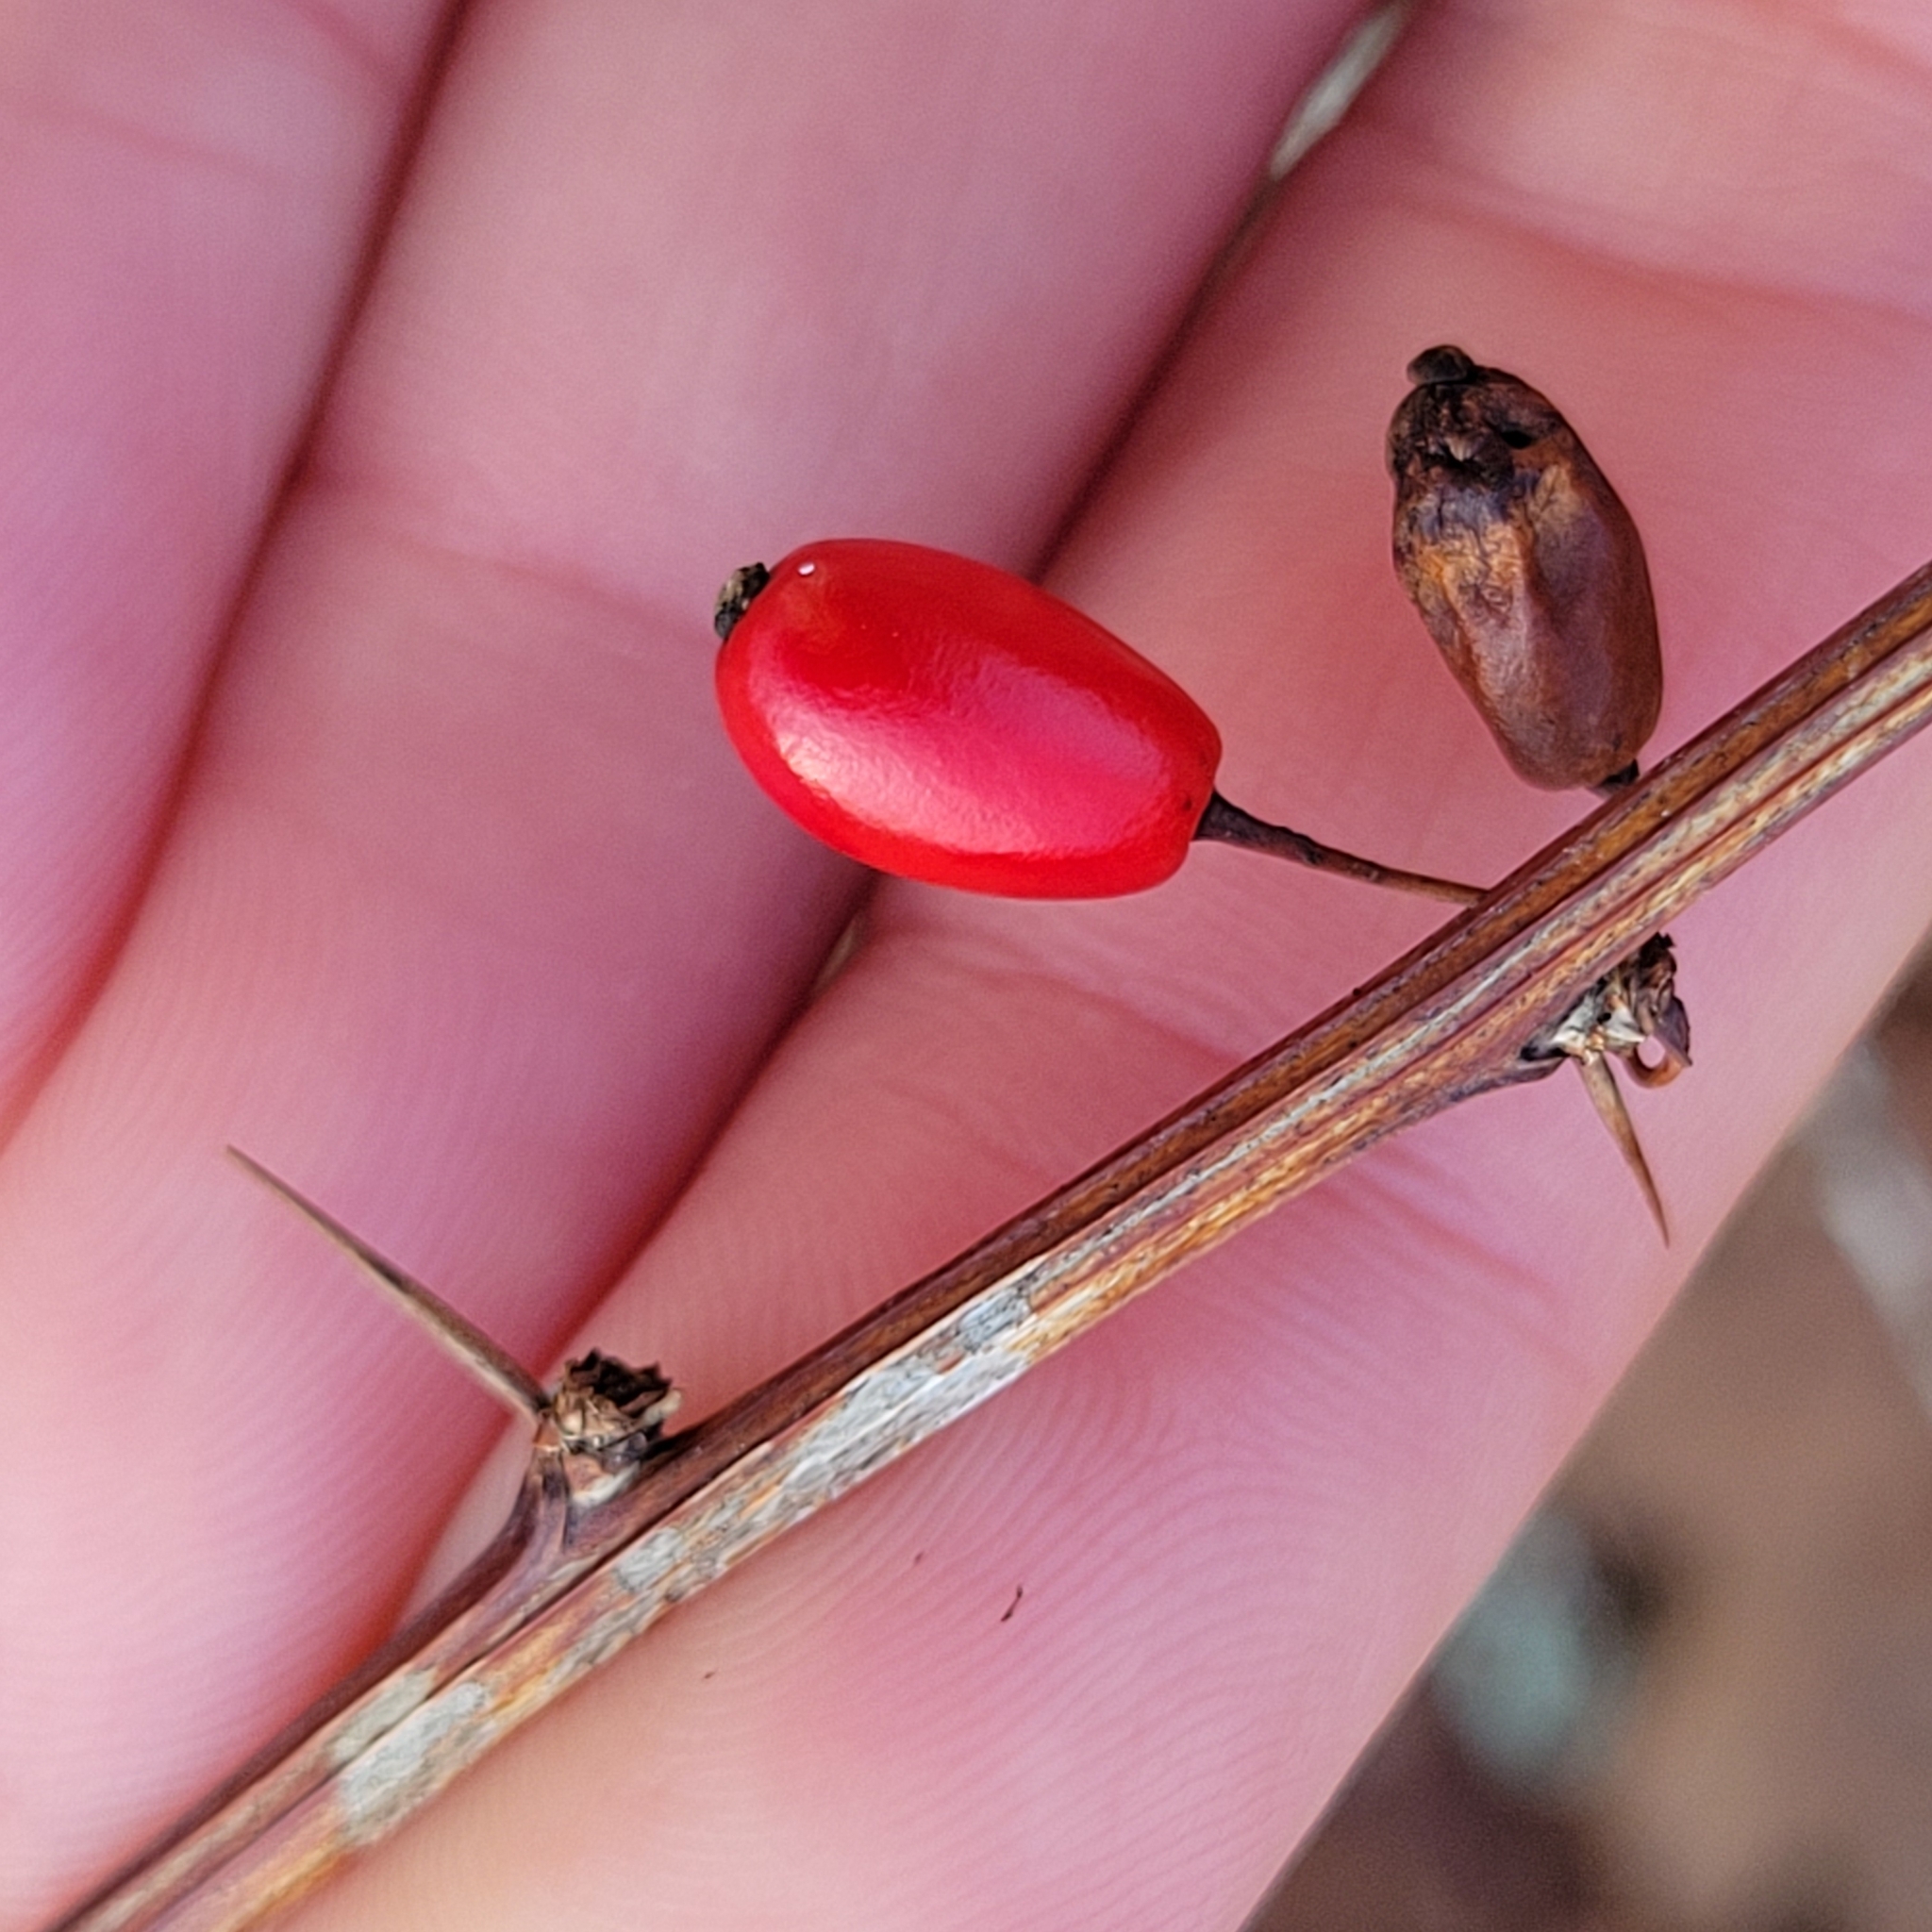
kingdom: Plantae
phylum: Tracheophyta
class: Magnoliopsida
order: Ranunculales
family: Berberidaceae
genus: Berberis
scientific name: Berberis thunbergii
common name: Japanese barberry
